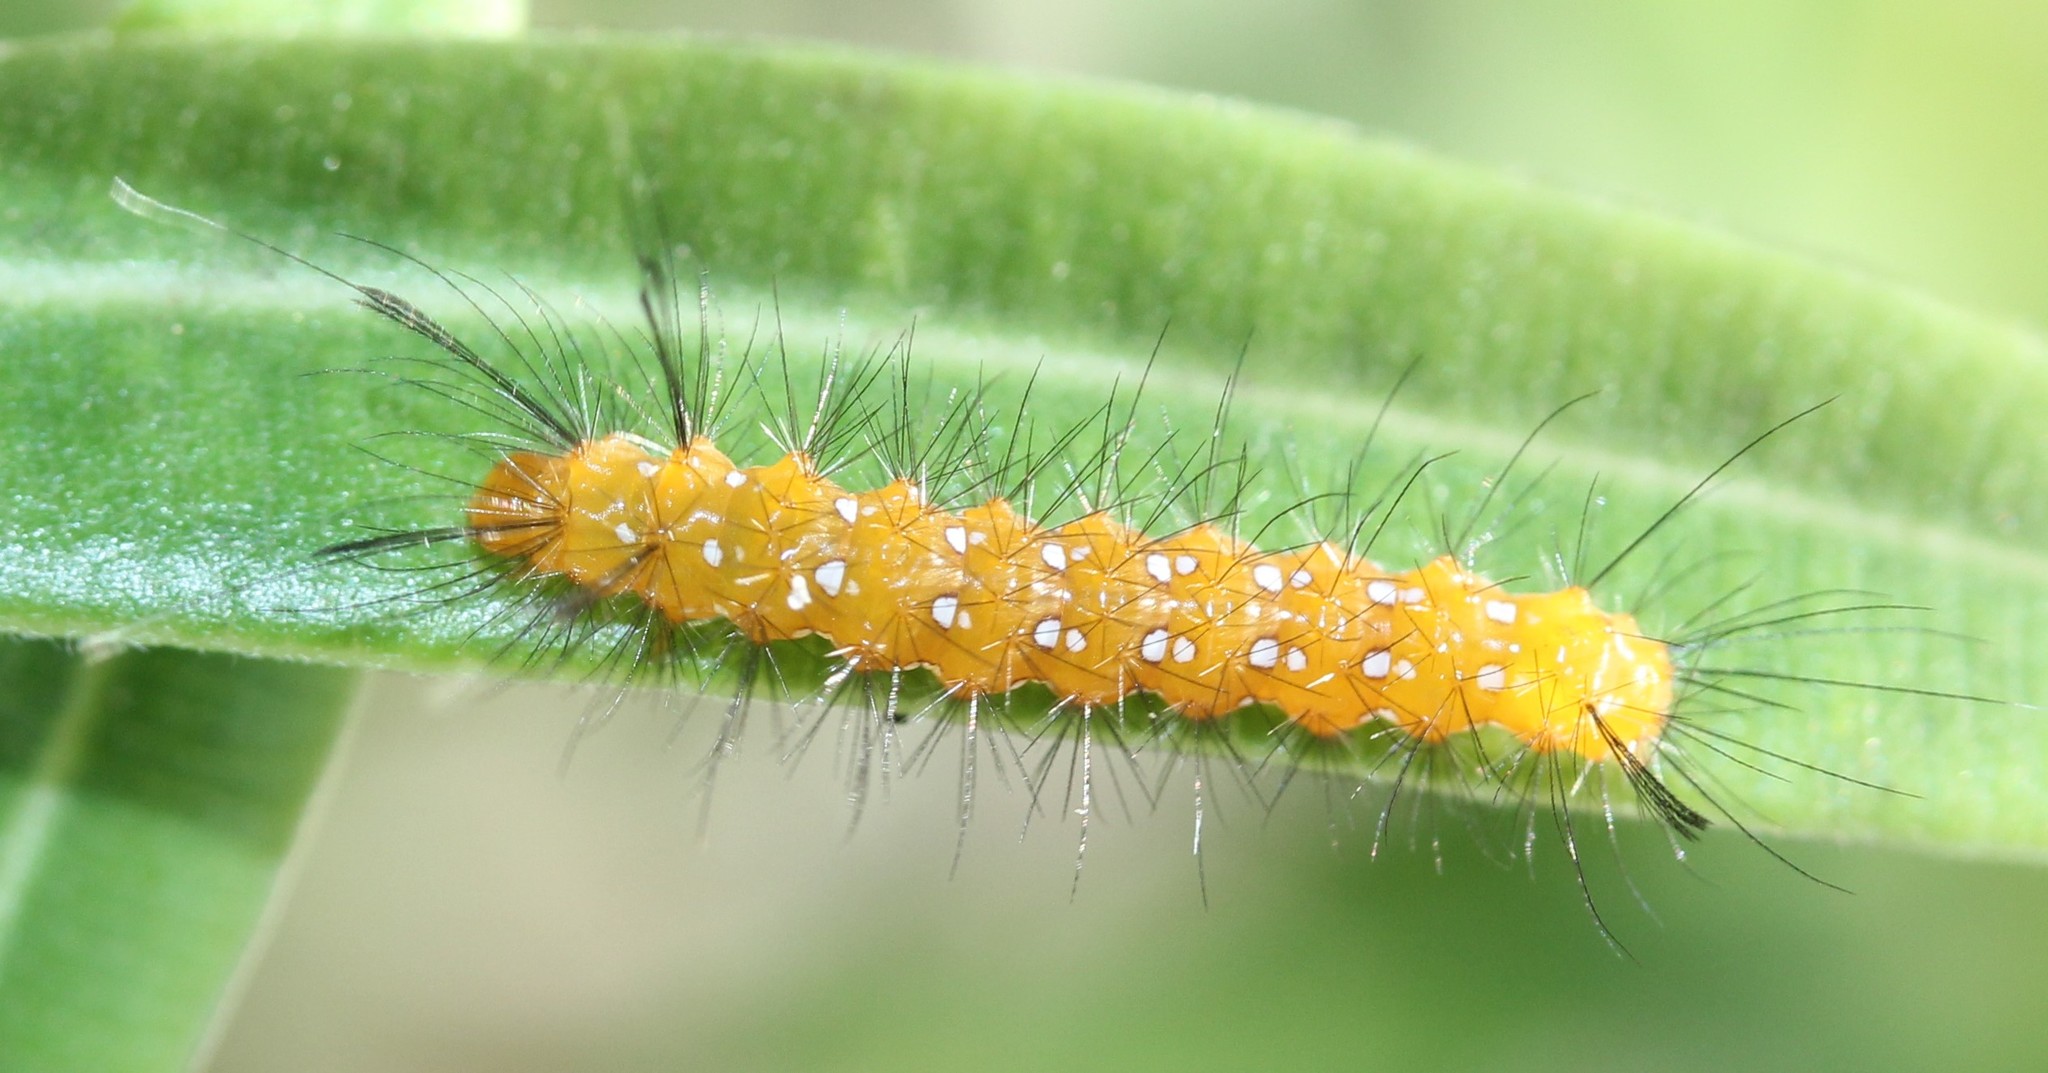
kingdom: Animalia
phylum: Arthropoda
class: Insecta
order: Lepidoptera
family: Erebidae
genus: Empyreuma
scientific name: Empyreuma pugione
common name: Spotted oleander caterpillar moth
